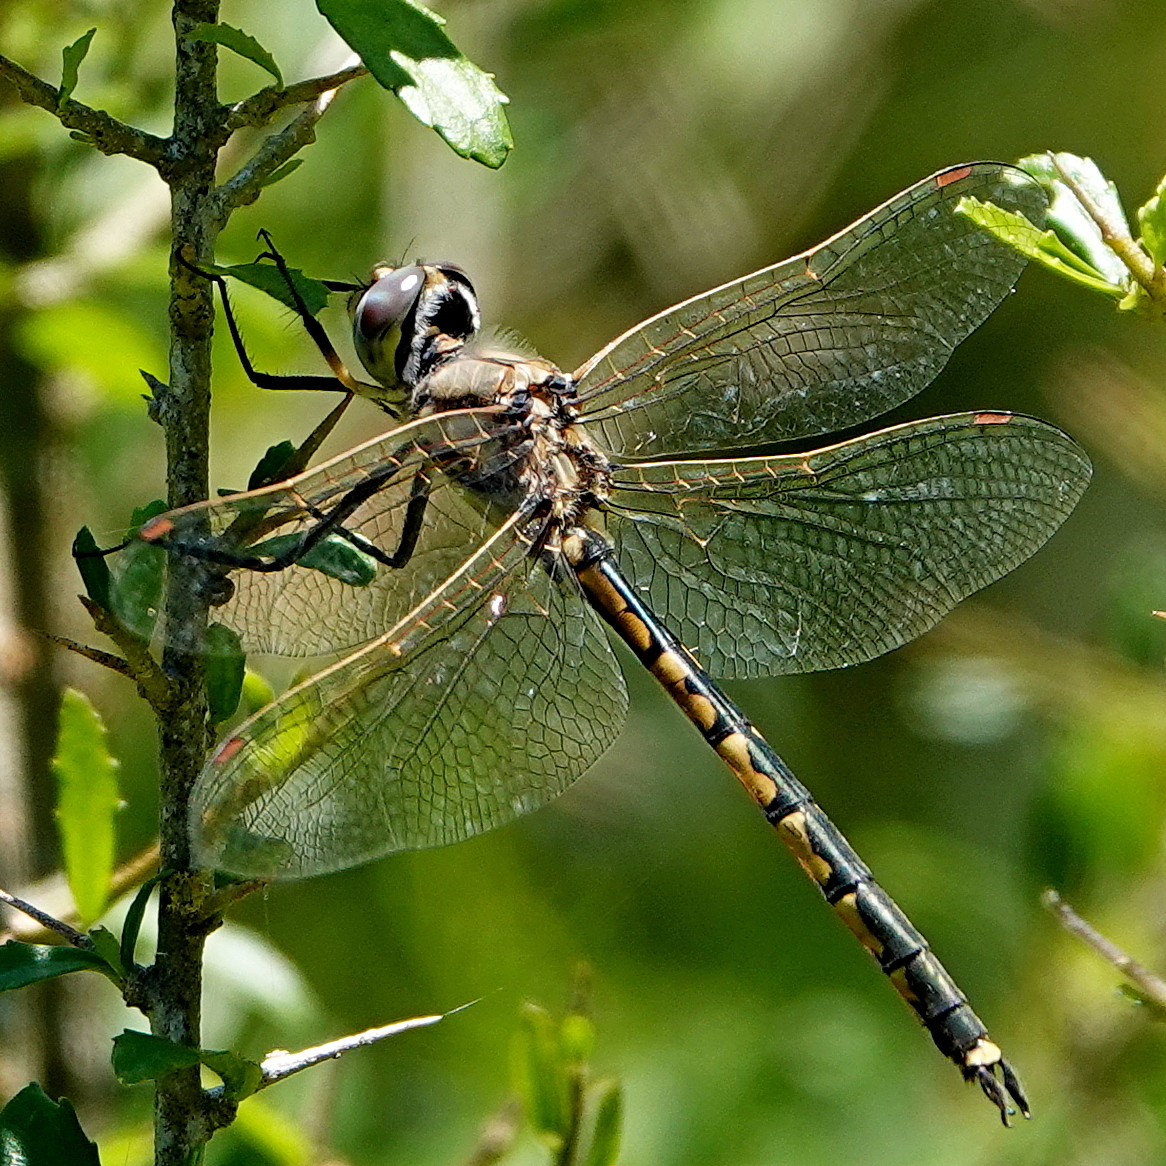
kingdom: Animalia
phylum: Arthropoda
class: Insecta
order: Odonata
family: Corduliidae
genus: Hemicordulia
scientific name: Hemicordulia tau
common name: Tau emerald
